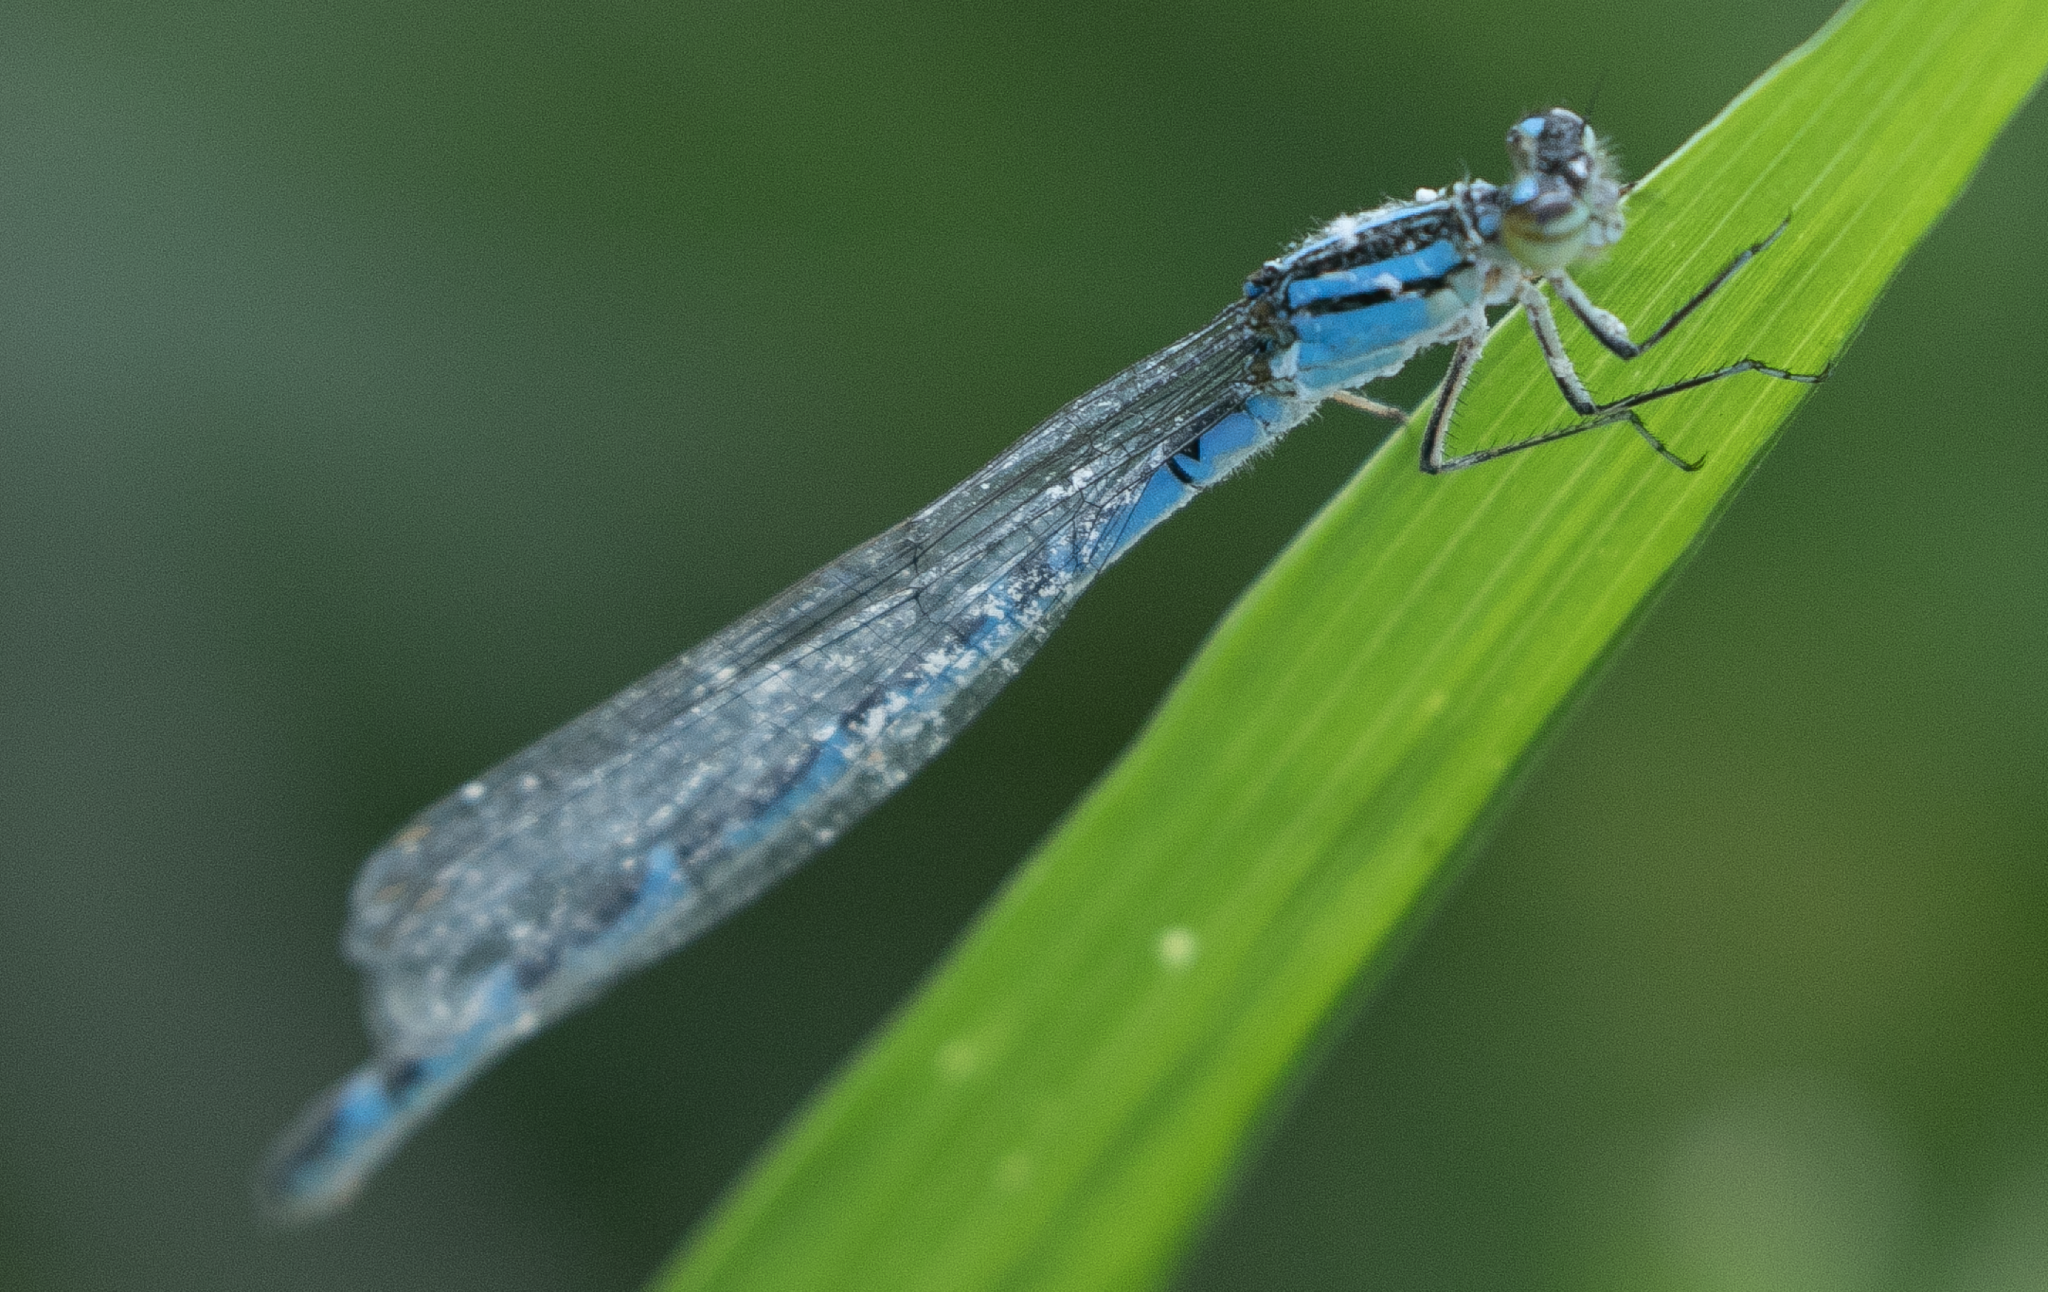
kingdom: Animalia
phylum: Arthropoda
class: Insecta
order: Odonata
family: Coenagrionidae
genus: Enallagma
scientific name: Enallagma cyathigerum
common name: Common blue damselfly
